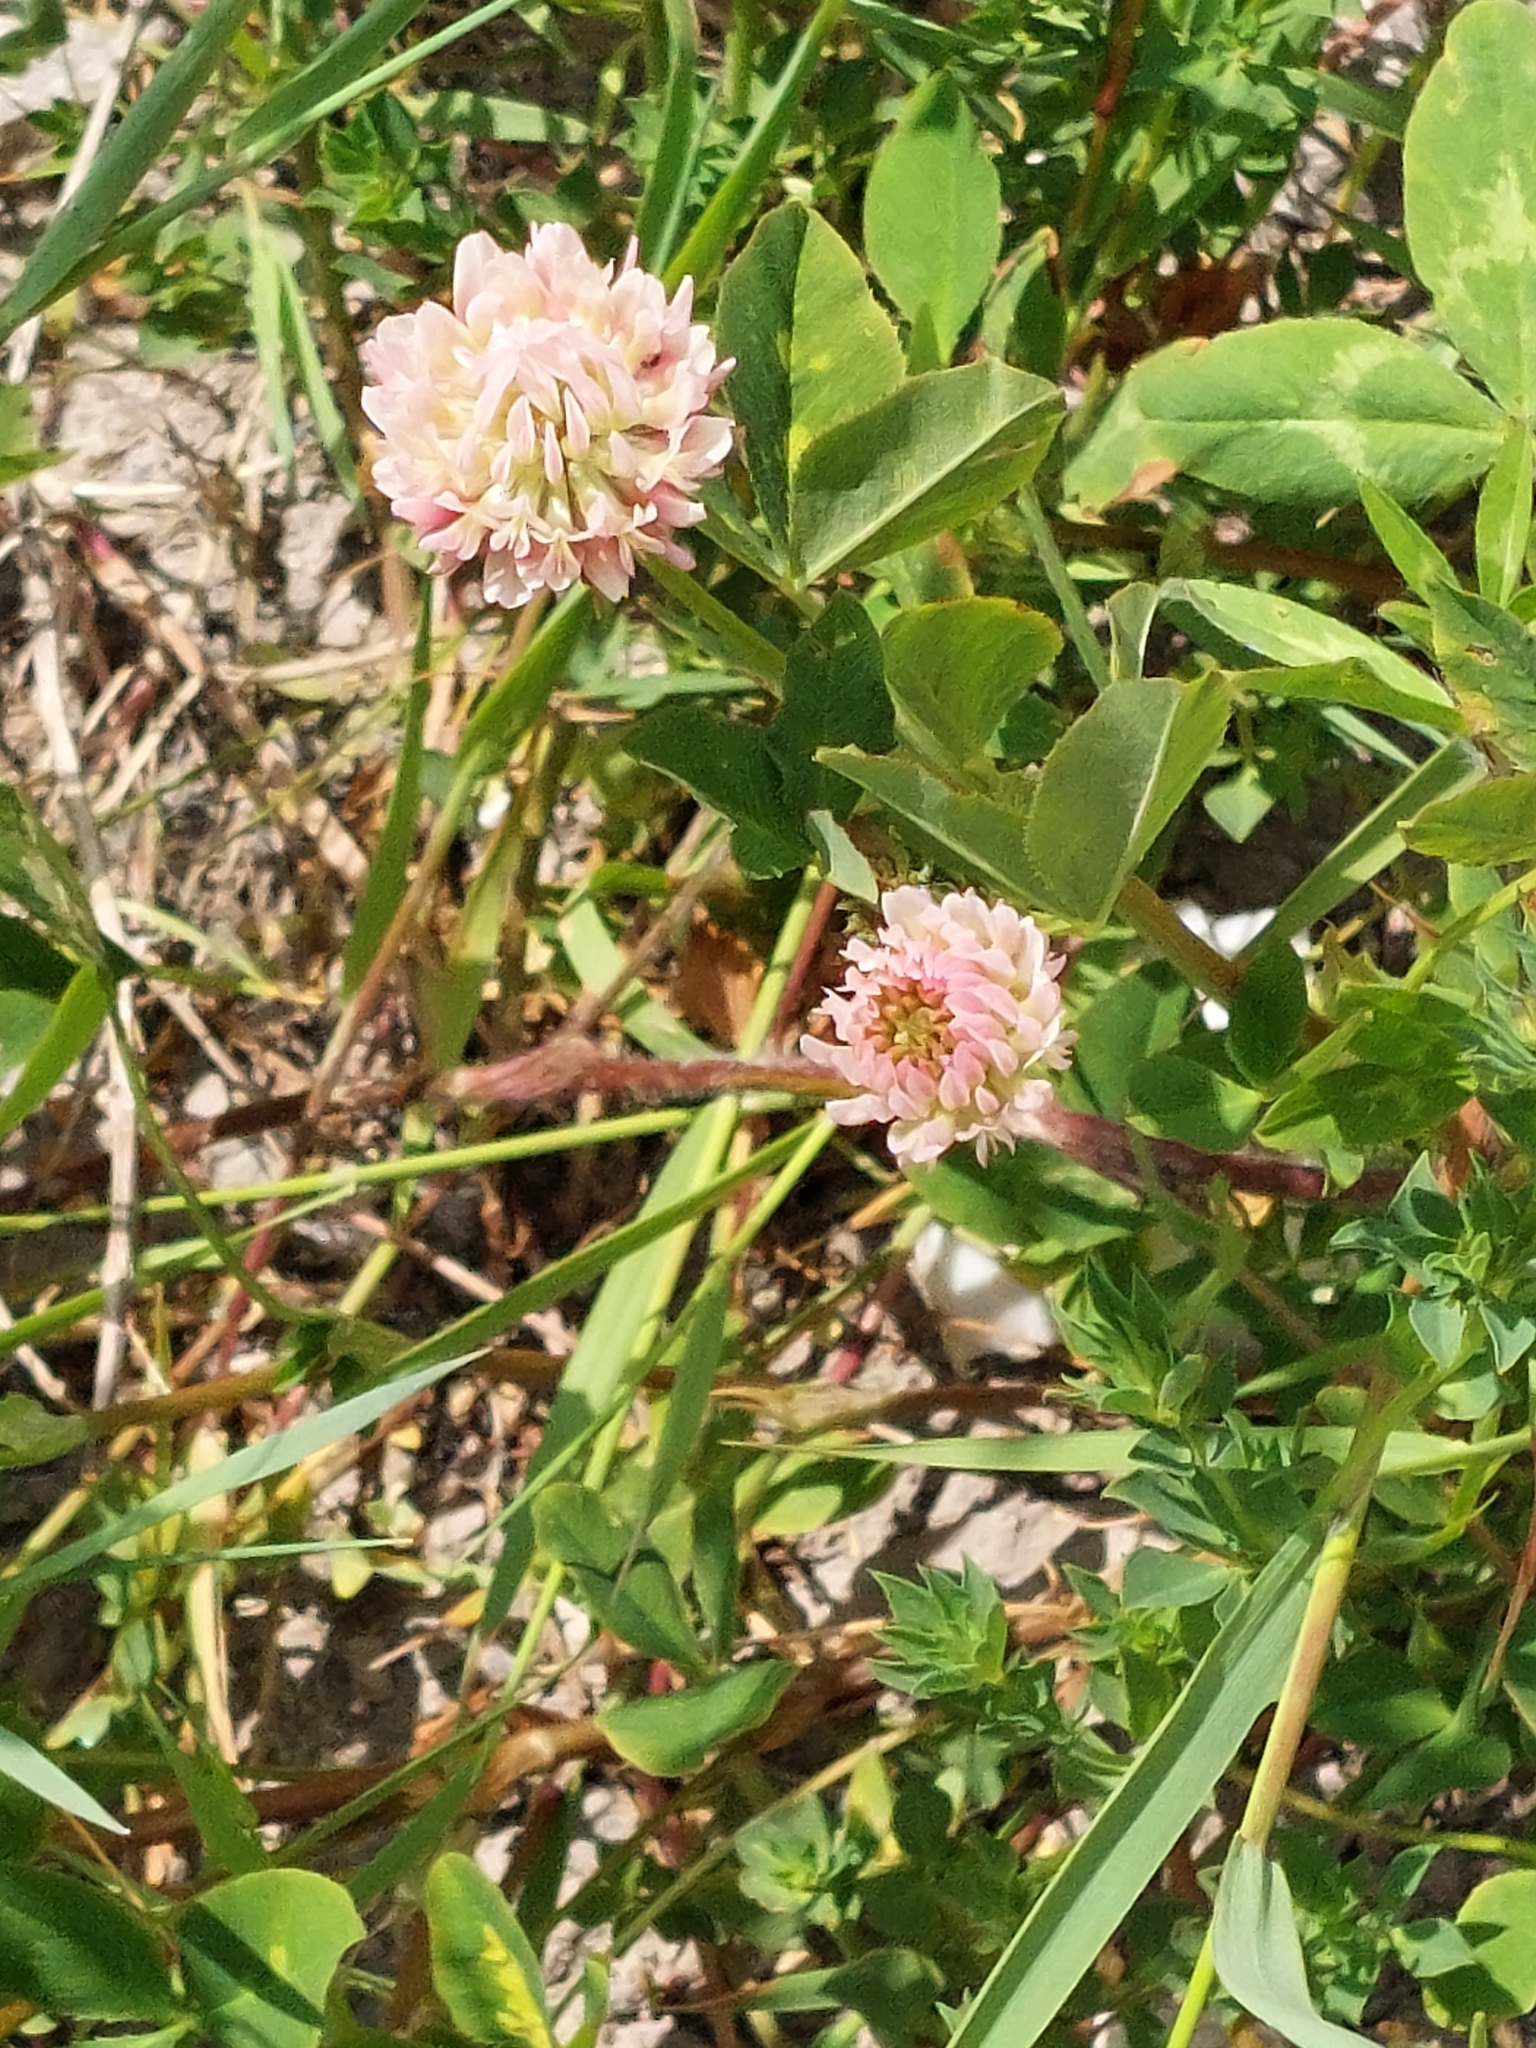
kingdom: Plantae
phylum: Tracheophyta
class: Magnoliopsida
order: Fabales
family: Fabaceae
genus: Trifolium
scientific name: Trifolium hybridum
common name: Alsike clover
